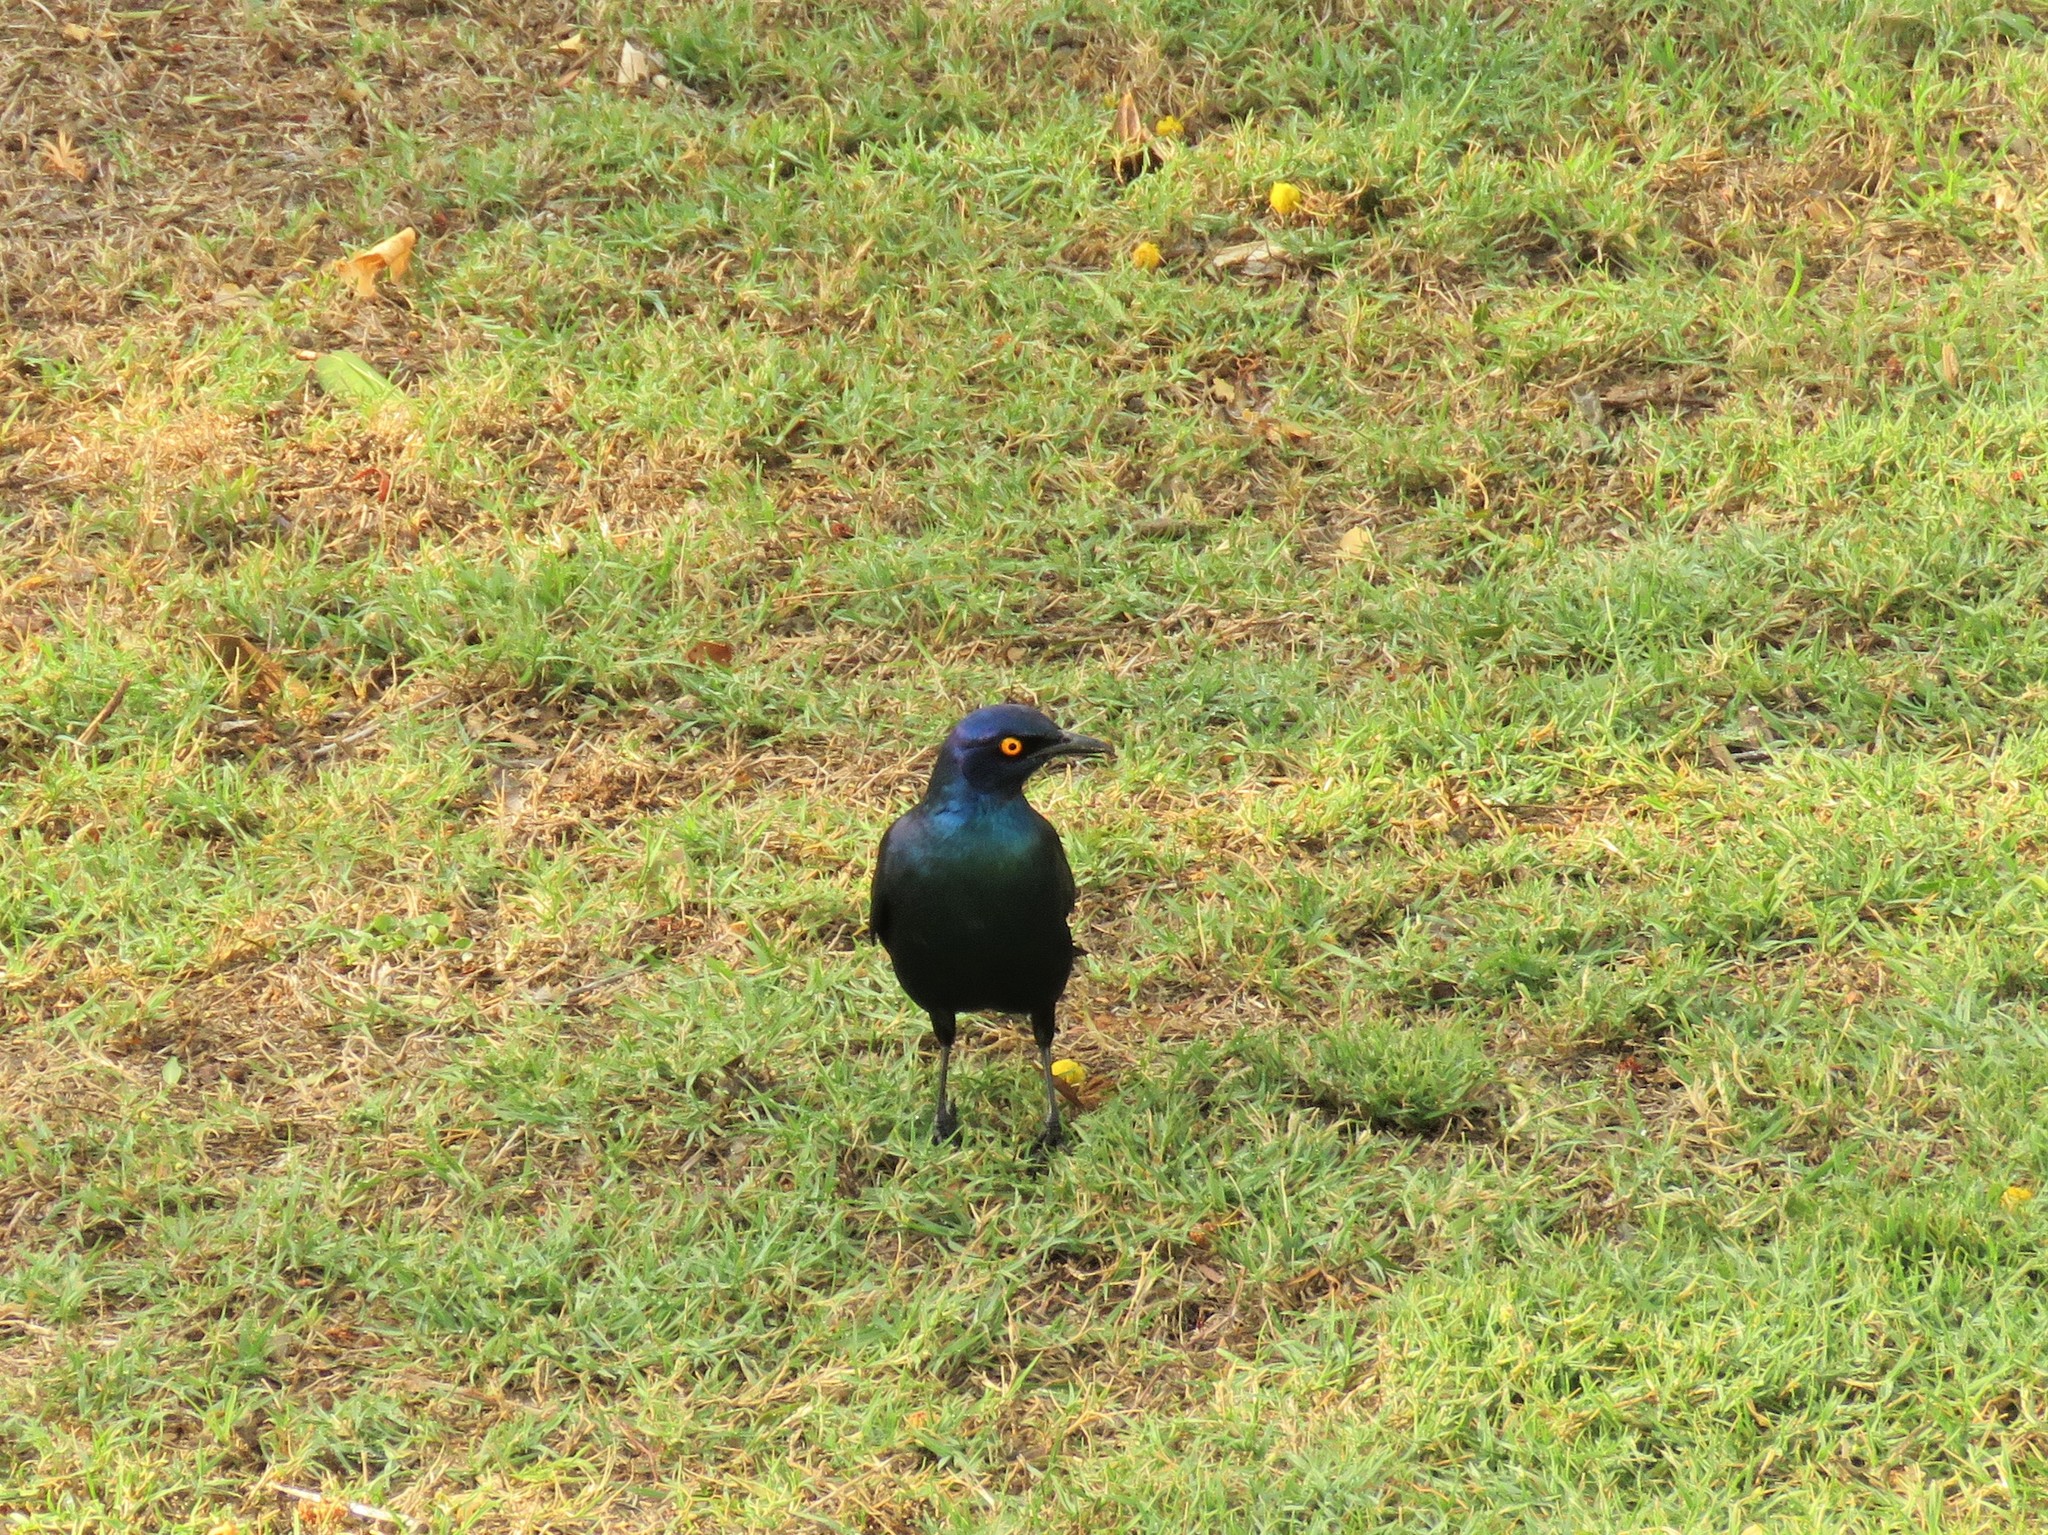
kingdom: Animalia
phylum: Chordata
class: Aves
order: Passeriformes
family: Sturnidae
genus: Lamprotornis
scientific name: Lamprotornis nitens
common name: Cape starling
